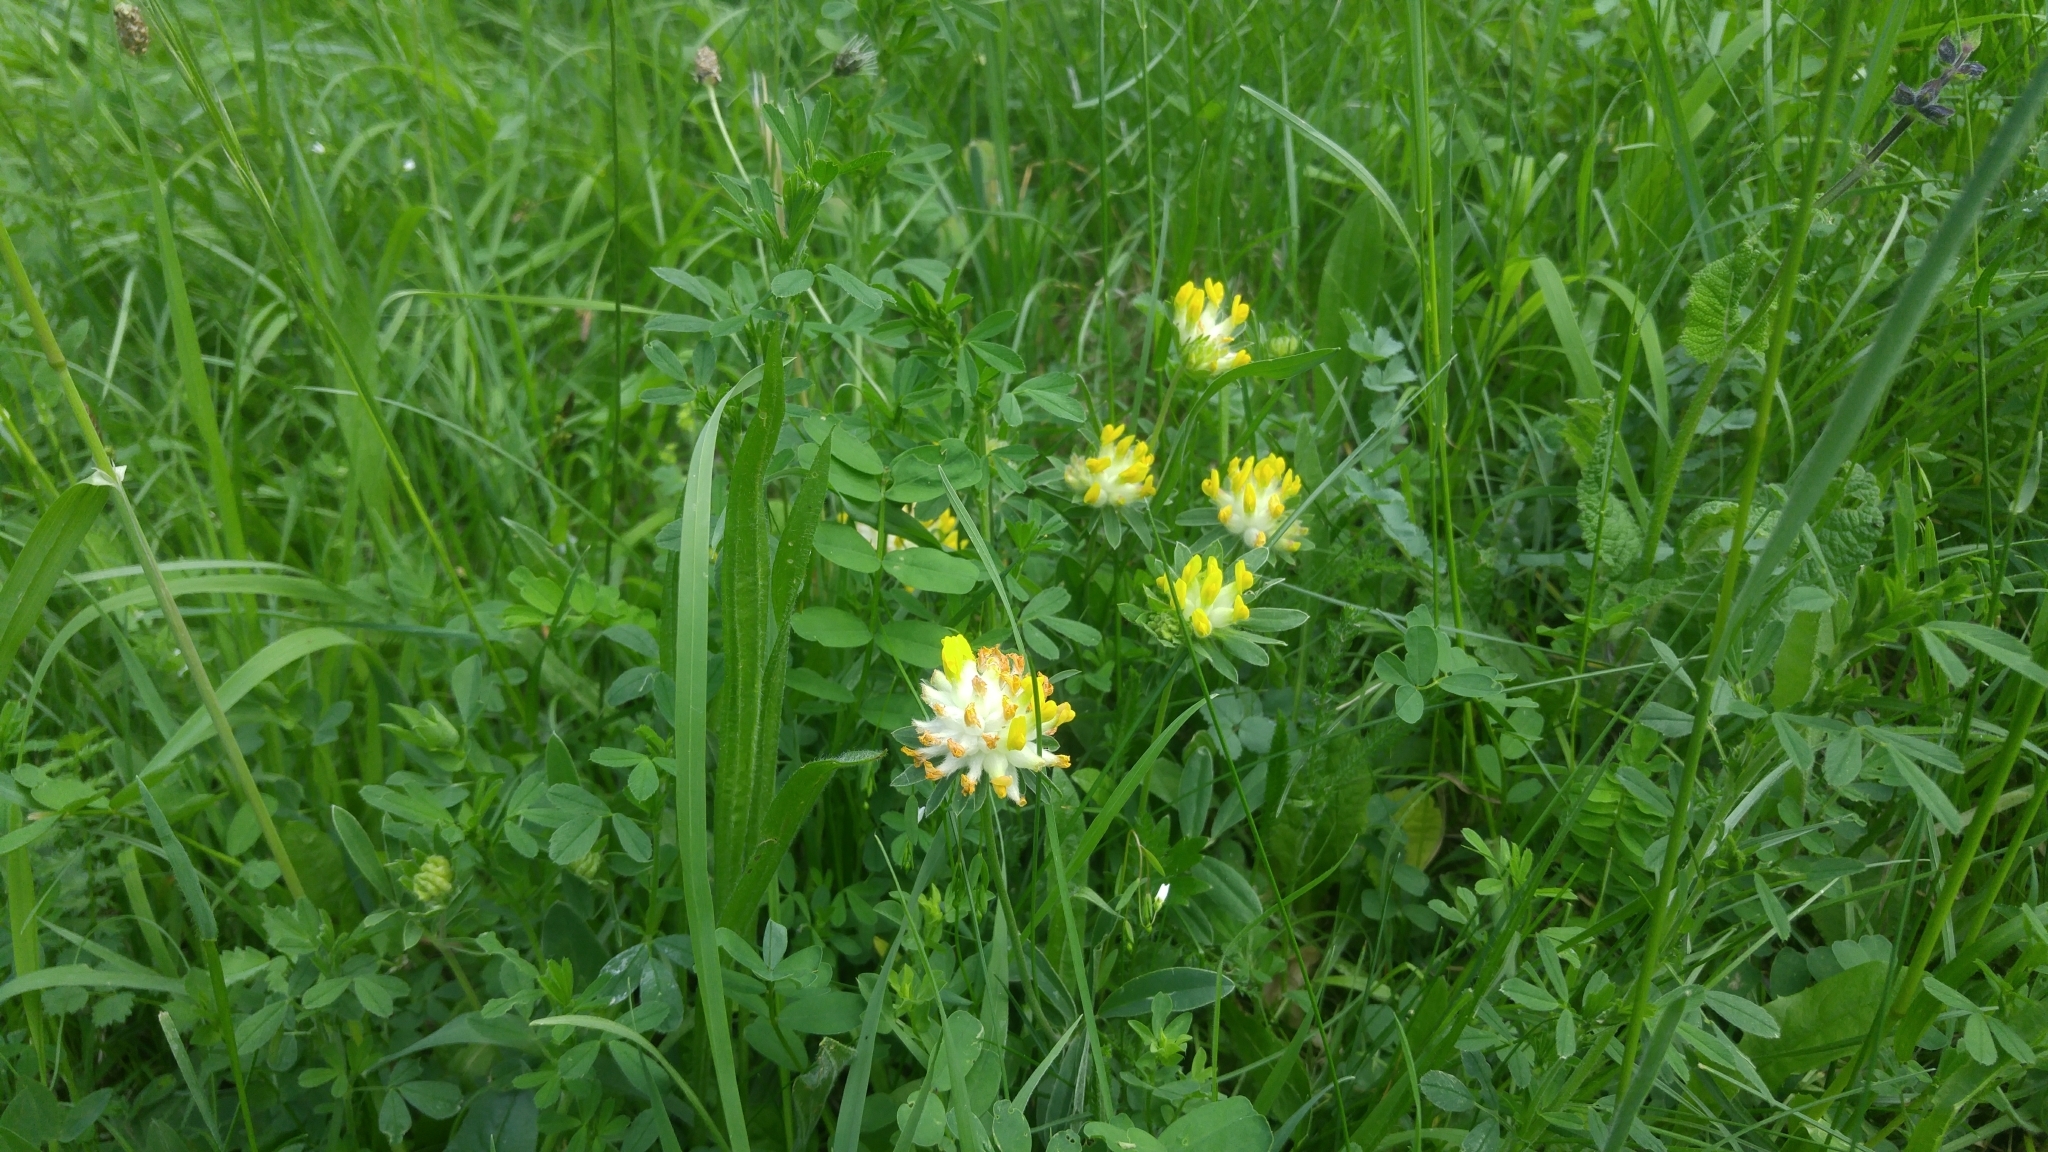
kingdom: Plantae
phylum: Tracheophyta
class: Magnoliopsida
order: Fabales
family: Fabaceae
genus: Anthyllis
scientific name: Anthyllis vulneraria
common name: Kidney vetch
